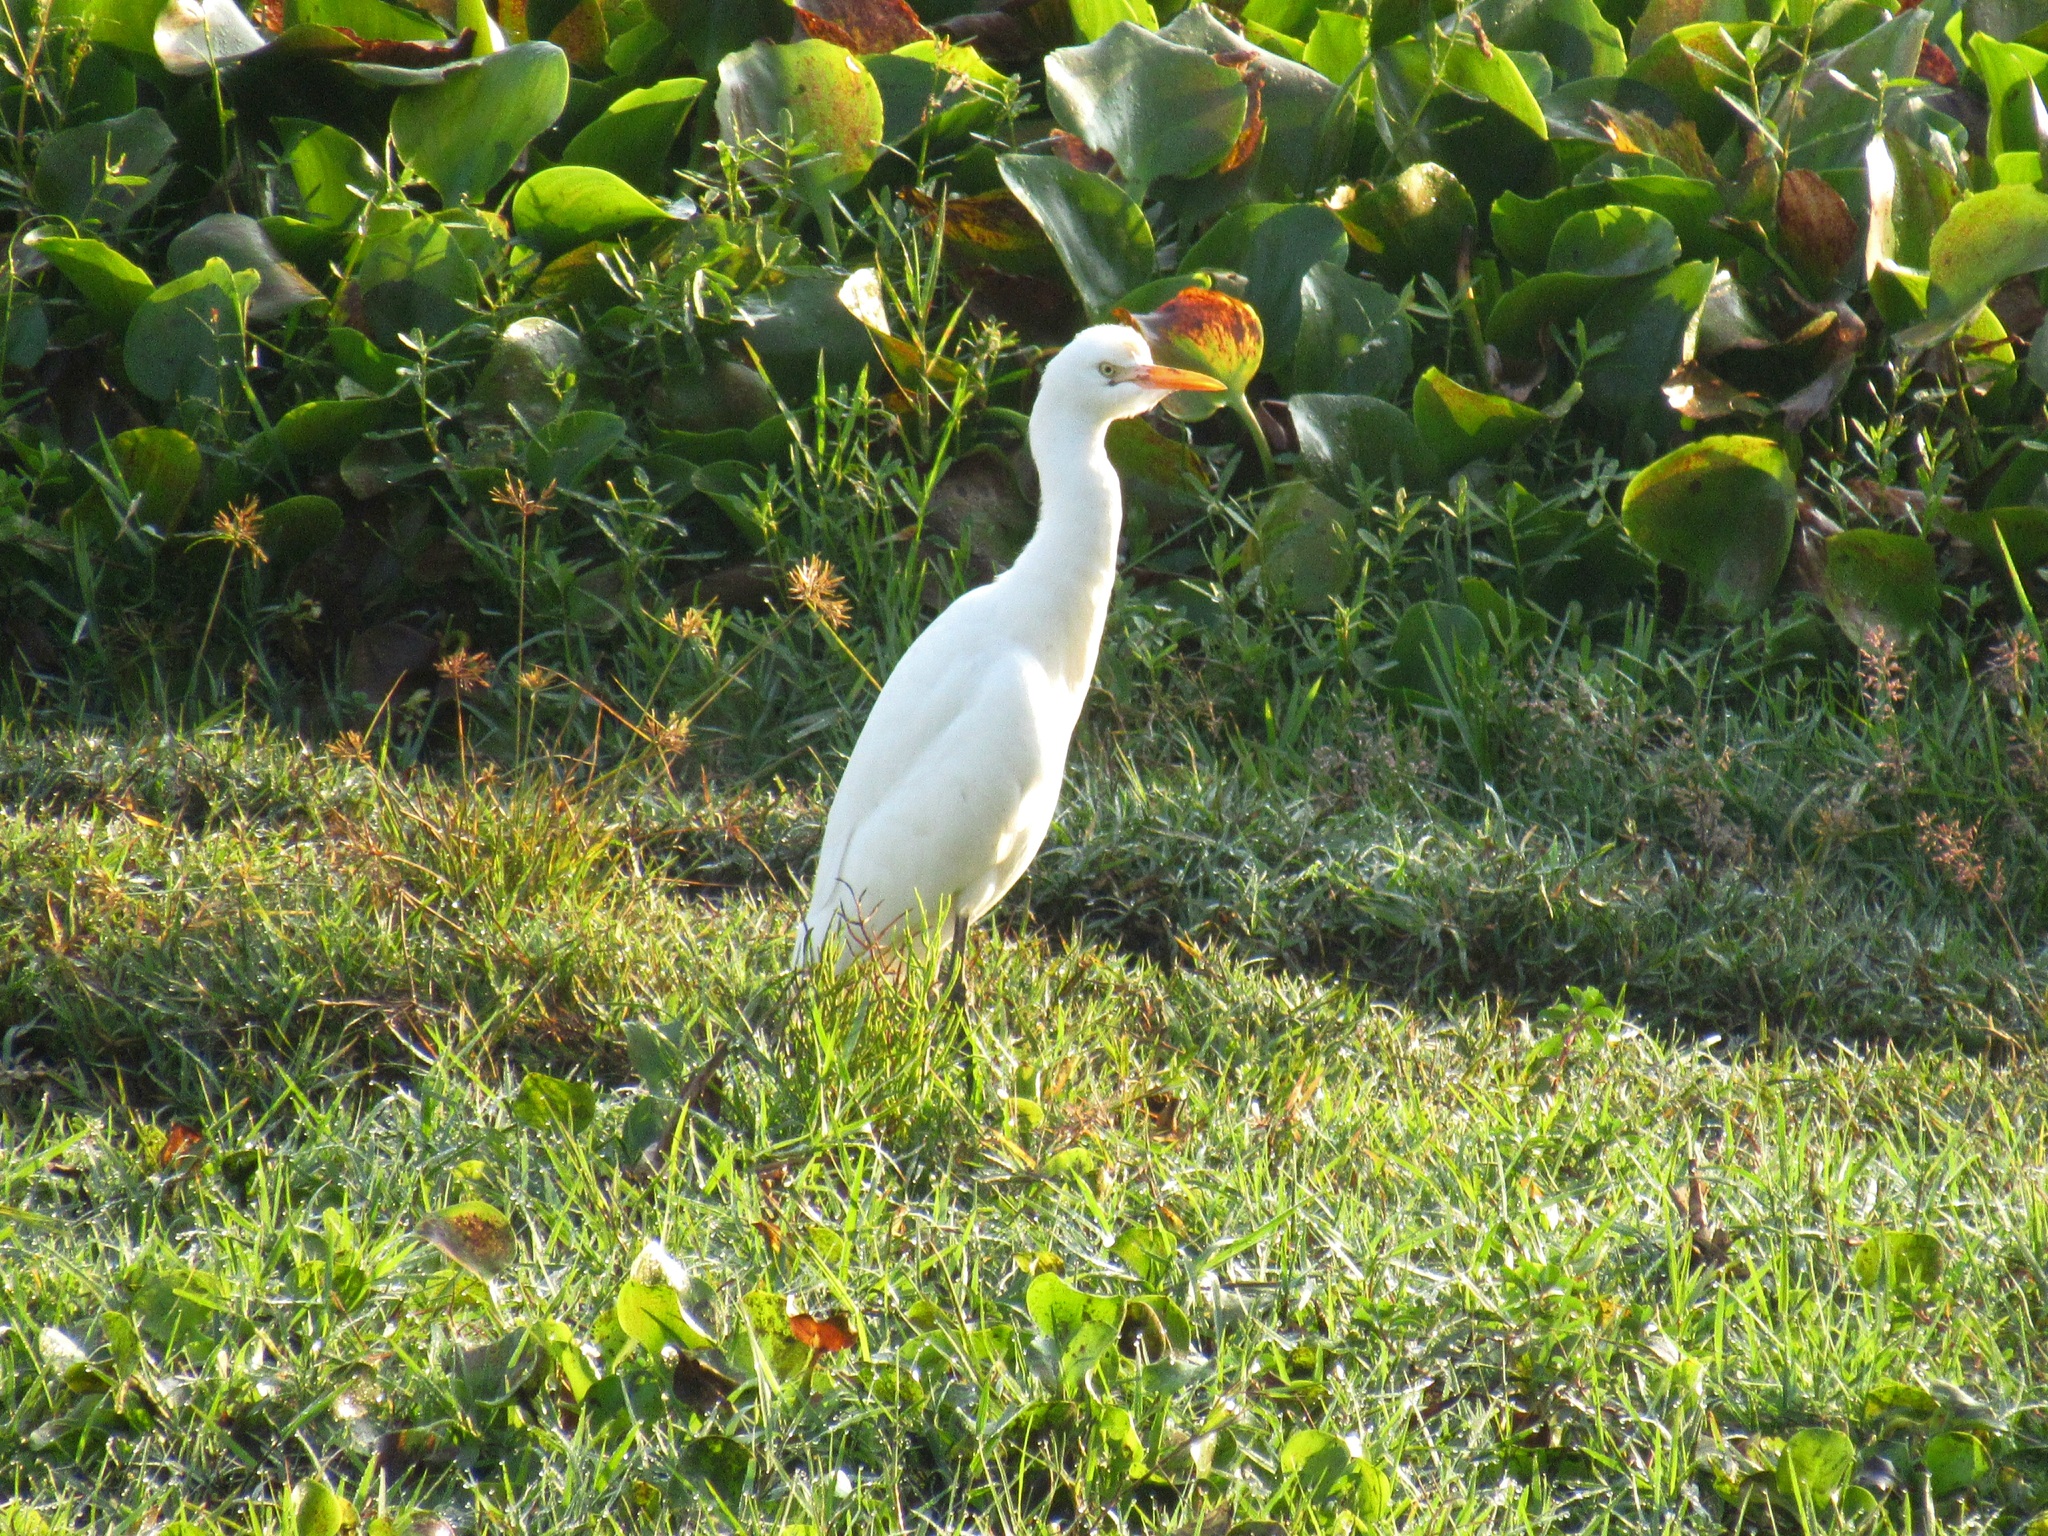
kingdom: Animalia
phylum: Chordata
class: Aves
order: Pelecaniformes
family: Ardeidae
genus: Bubulcus
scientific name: Bubulcus coromandus
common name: Eastern cattle egret
